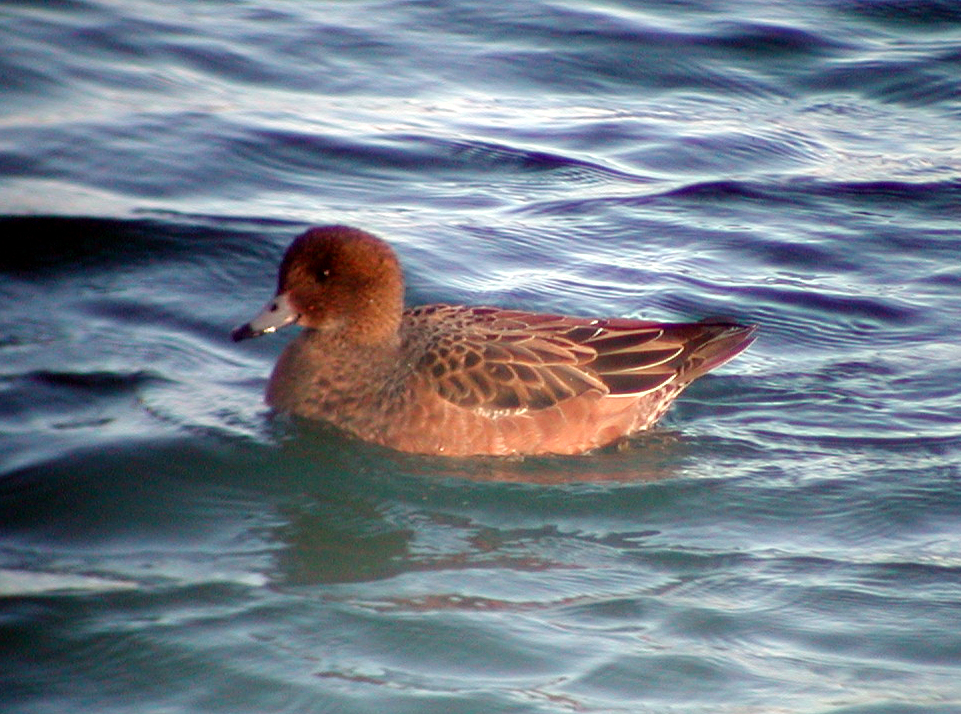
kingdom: Animalia
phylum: Chordata
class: Aves
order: Anseriformes
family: Anatidae
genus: Mareca
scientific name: Mareca penelope
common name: Eurasian wigeon
